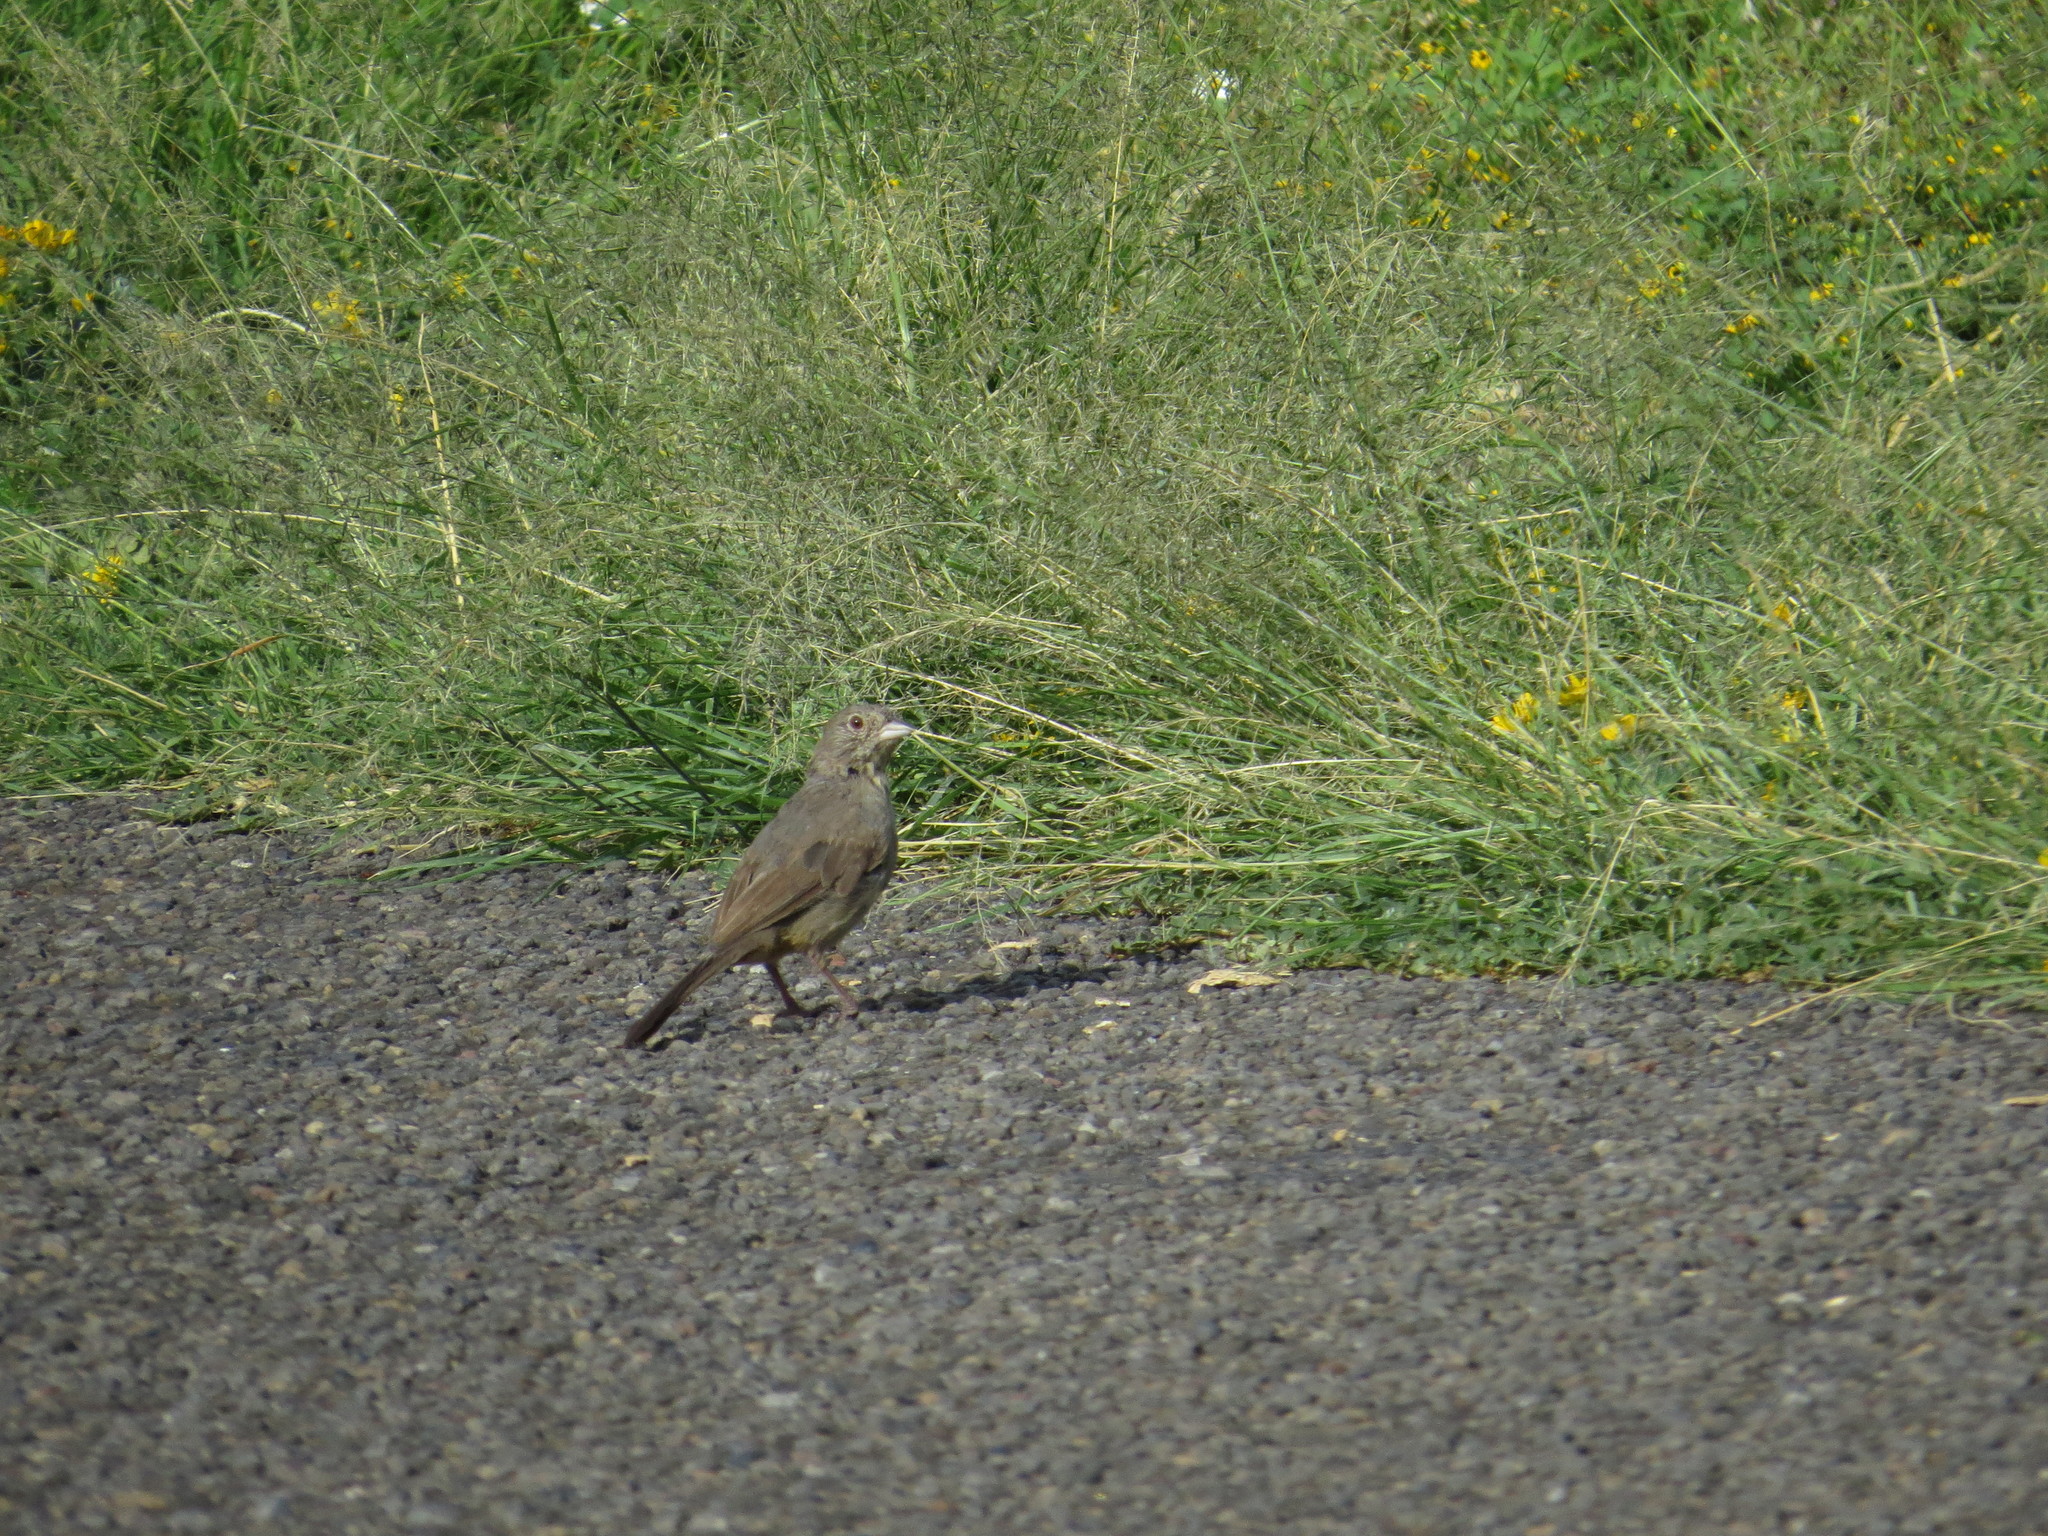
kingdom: Animalia
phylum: Chordata
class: Aves
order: Passeriformes
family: Passerellidae
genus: Melozone
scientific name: Melozone fusca
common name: Canyon towhee
